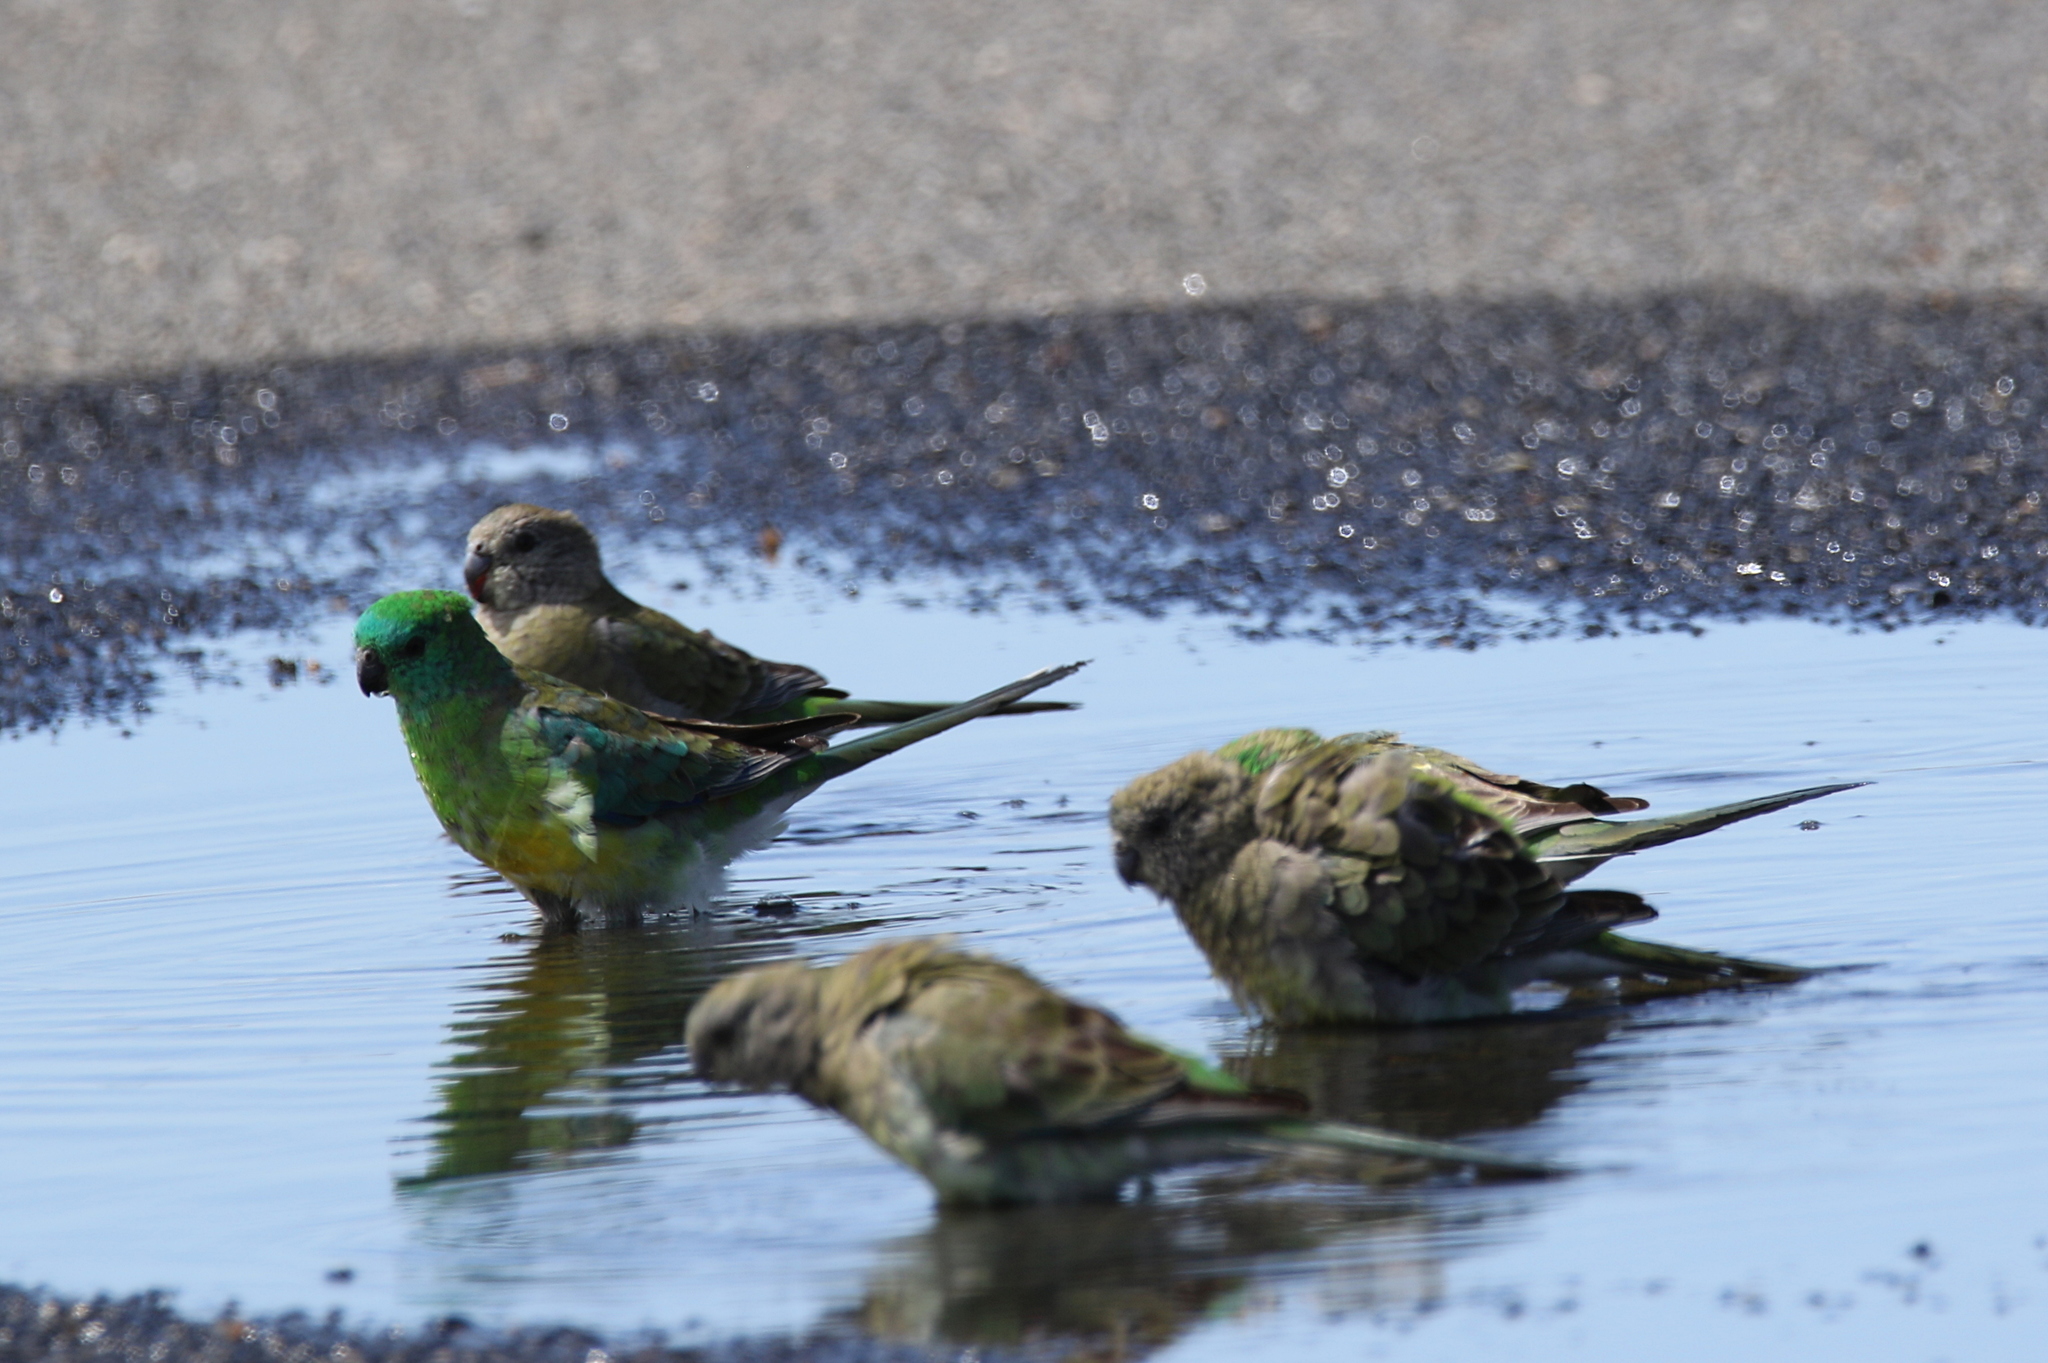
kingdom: Animalia
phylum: Chordata
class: Aves
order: Psittaciformes
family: Psittacidae
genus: Psephotus
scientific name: Psephotus haematonotus
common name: Red-rumped parrot
